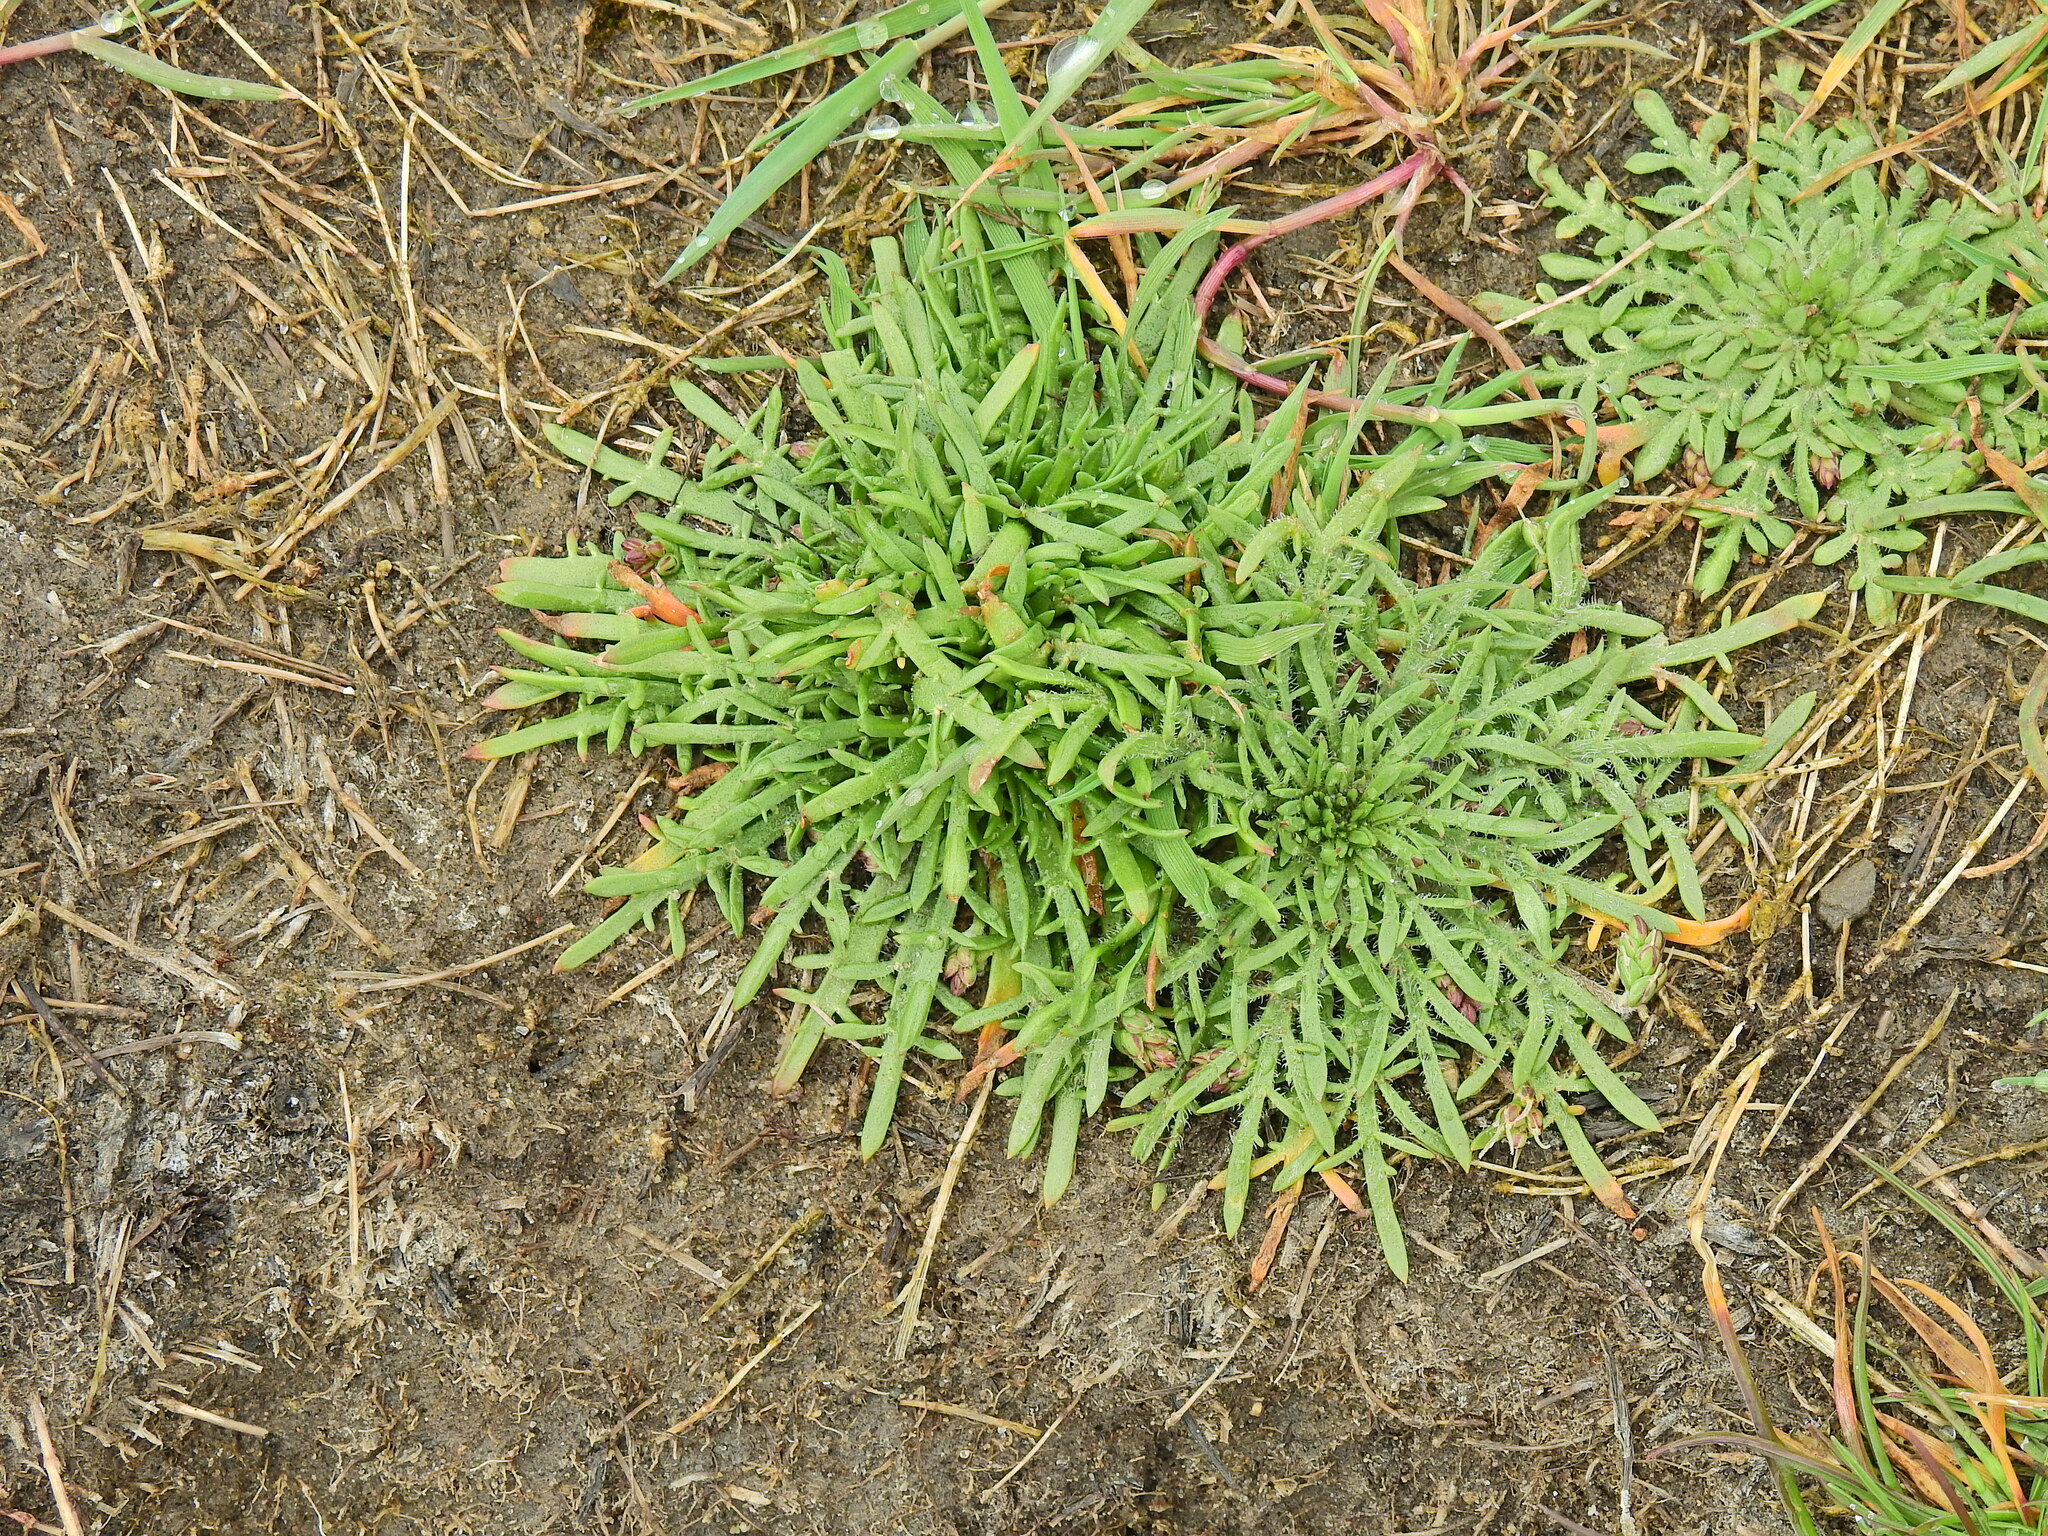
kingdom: Plantae
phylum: Tracheophyta
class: Magnoliopsida
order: Lamiales
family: Plantaginaceae
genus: Plantago
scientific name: Plantago coronopus
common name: Buck's-horn plantain
